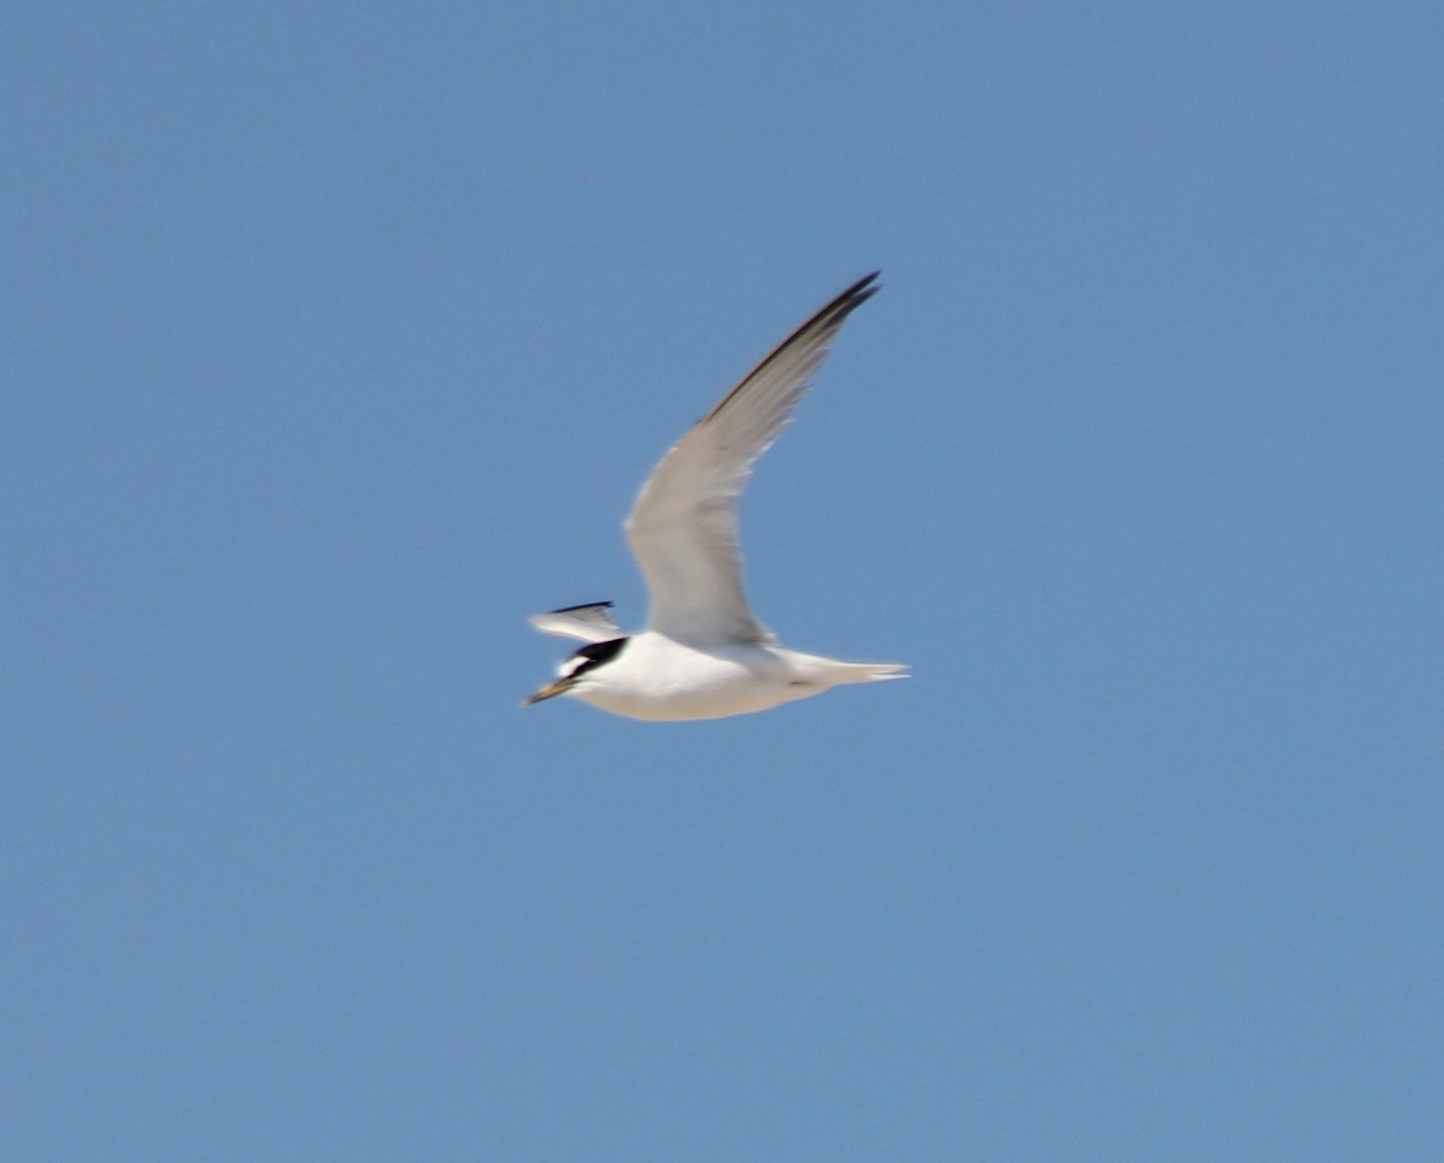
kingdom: Animalia
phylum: Chordata
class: Aves
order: Charadriiformes
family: Laridae
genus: Sternula
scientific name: Sternula antillarum
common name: Least tern
